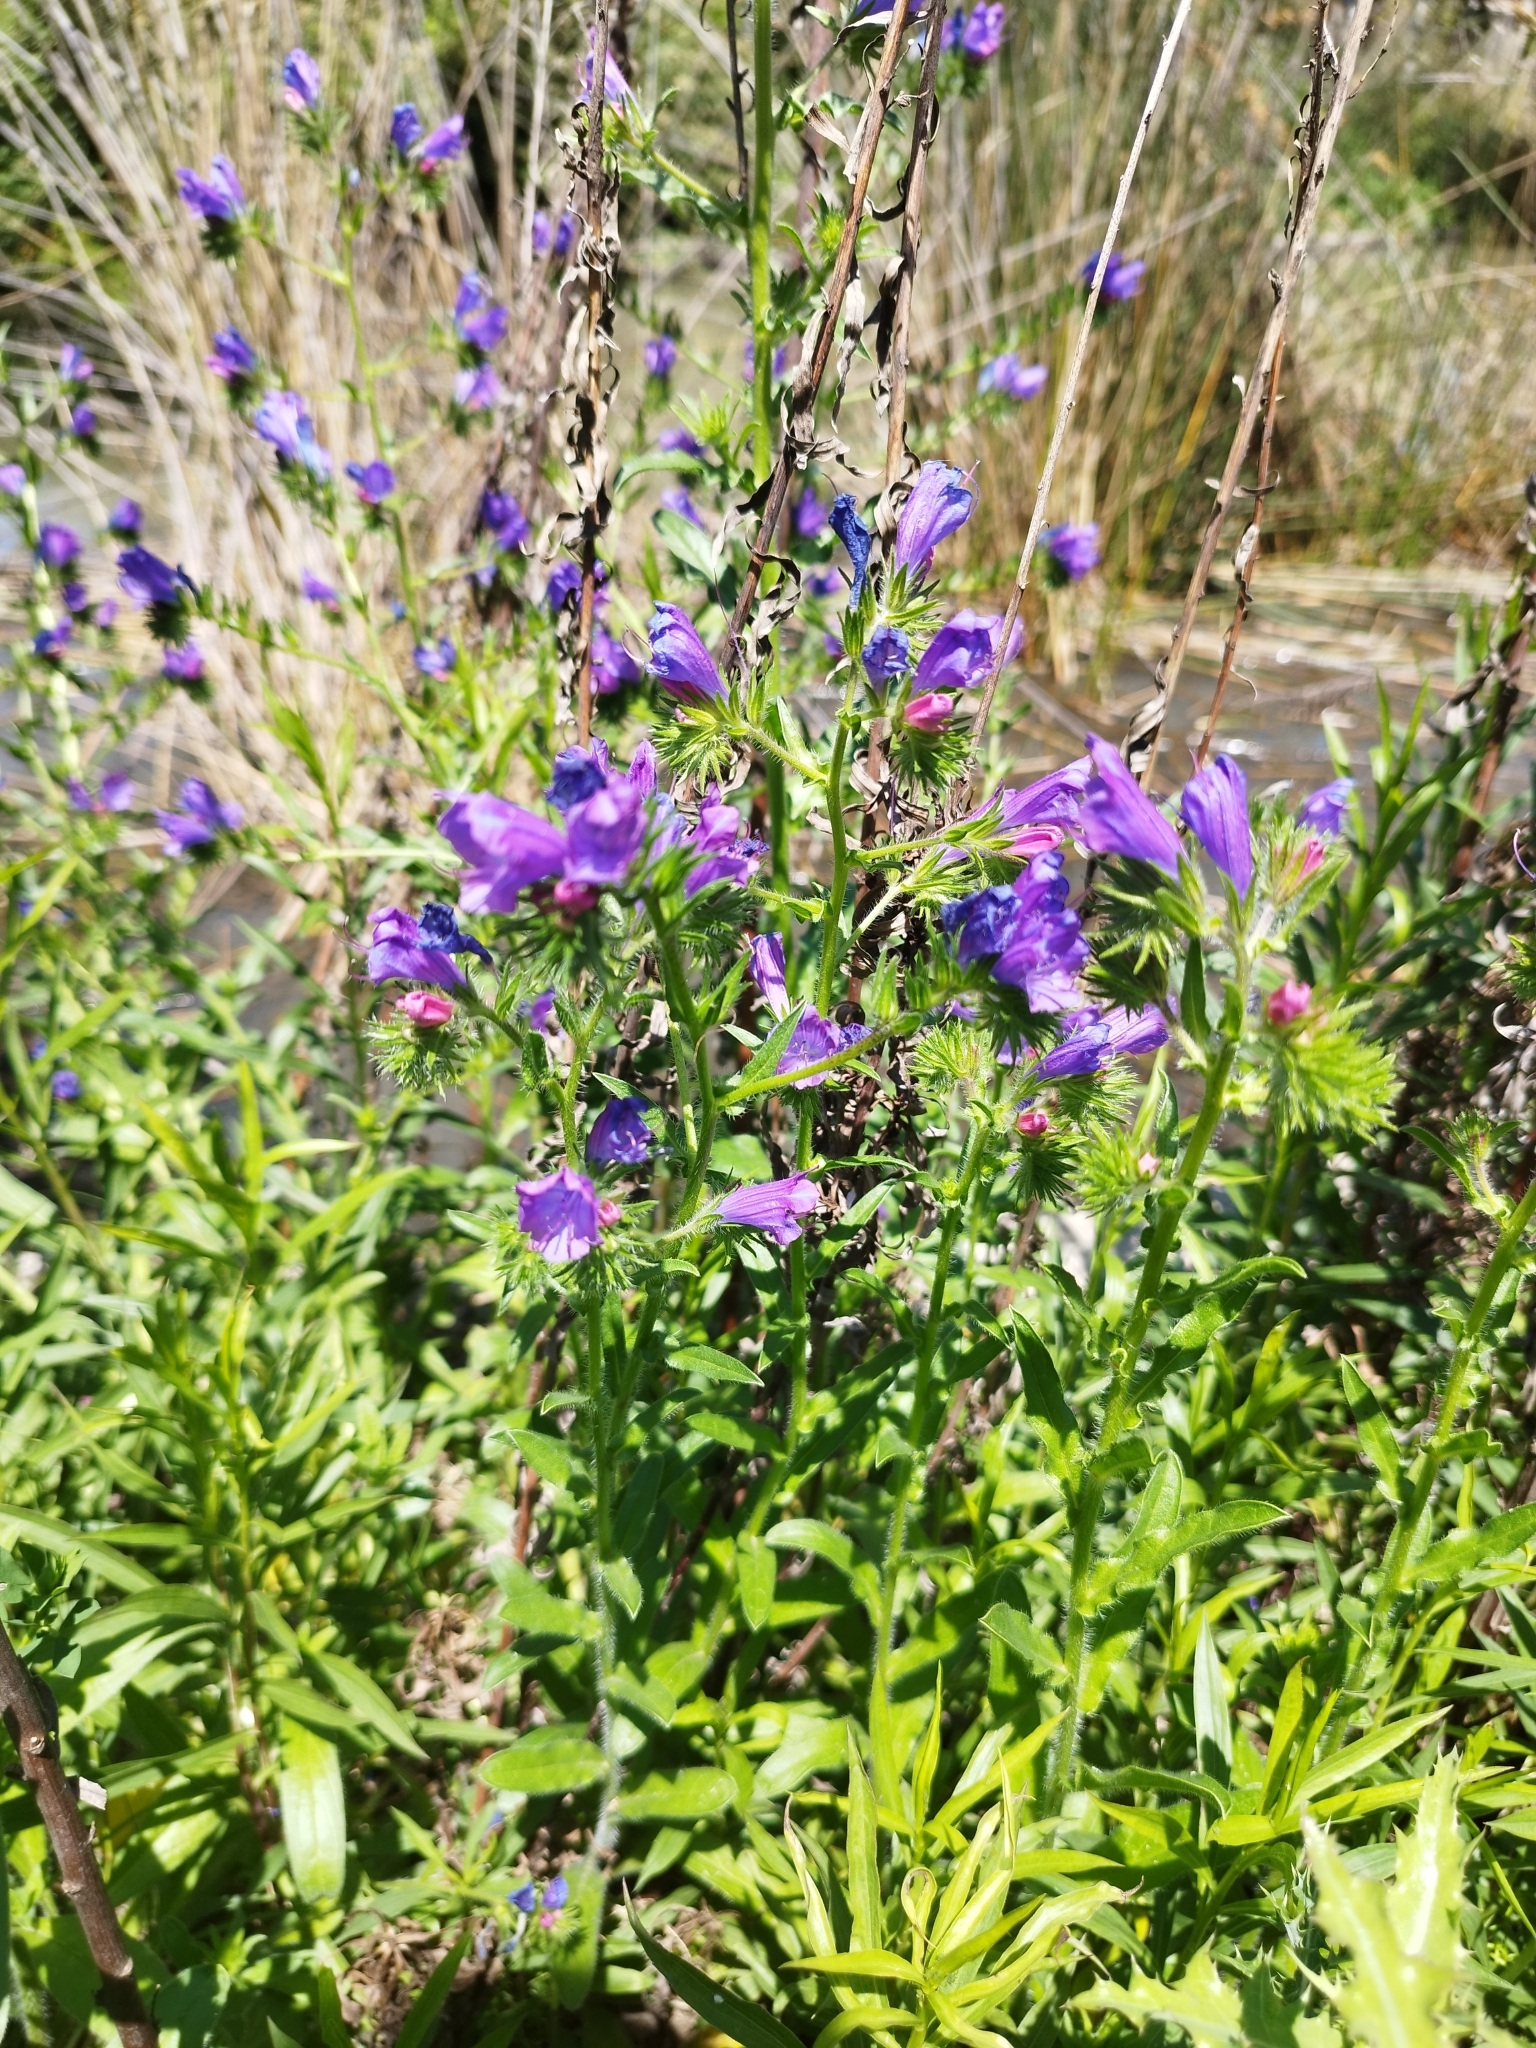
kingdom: Plantae
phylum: Tracheophyta
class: Magnoliopsida
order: Boraginales
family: Boraginaceae
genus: Echium
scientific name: Echium plantagineum
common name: Purple viper's-bugloss
